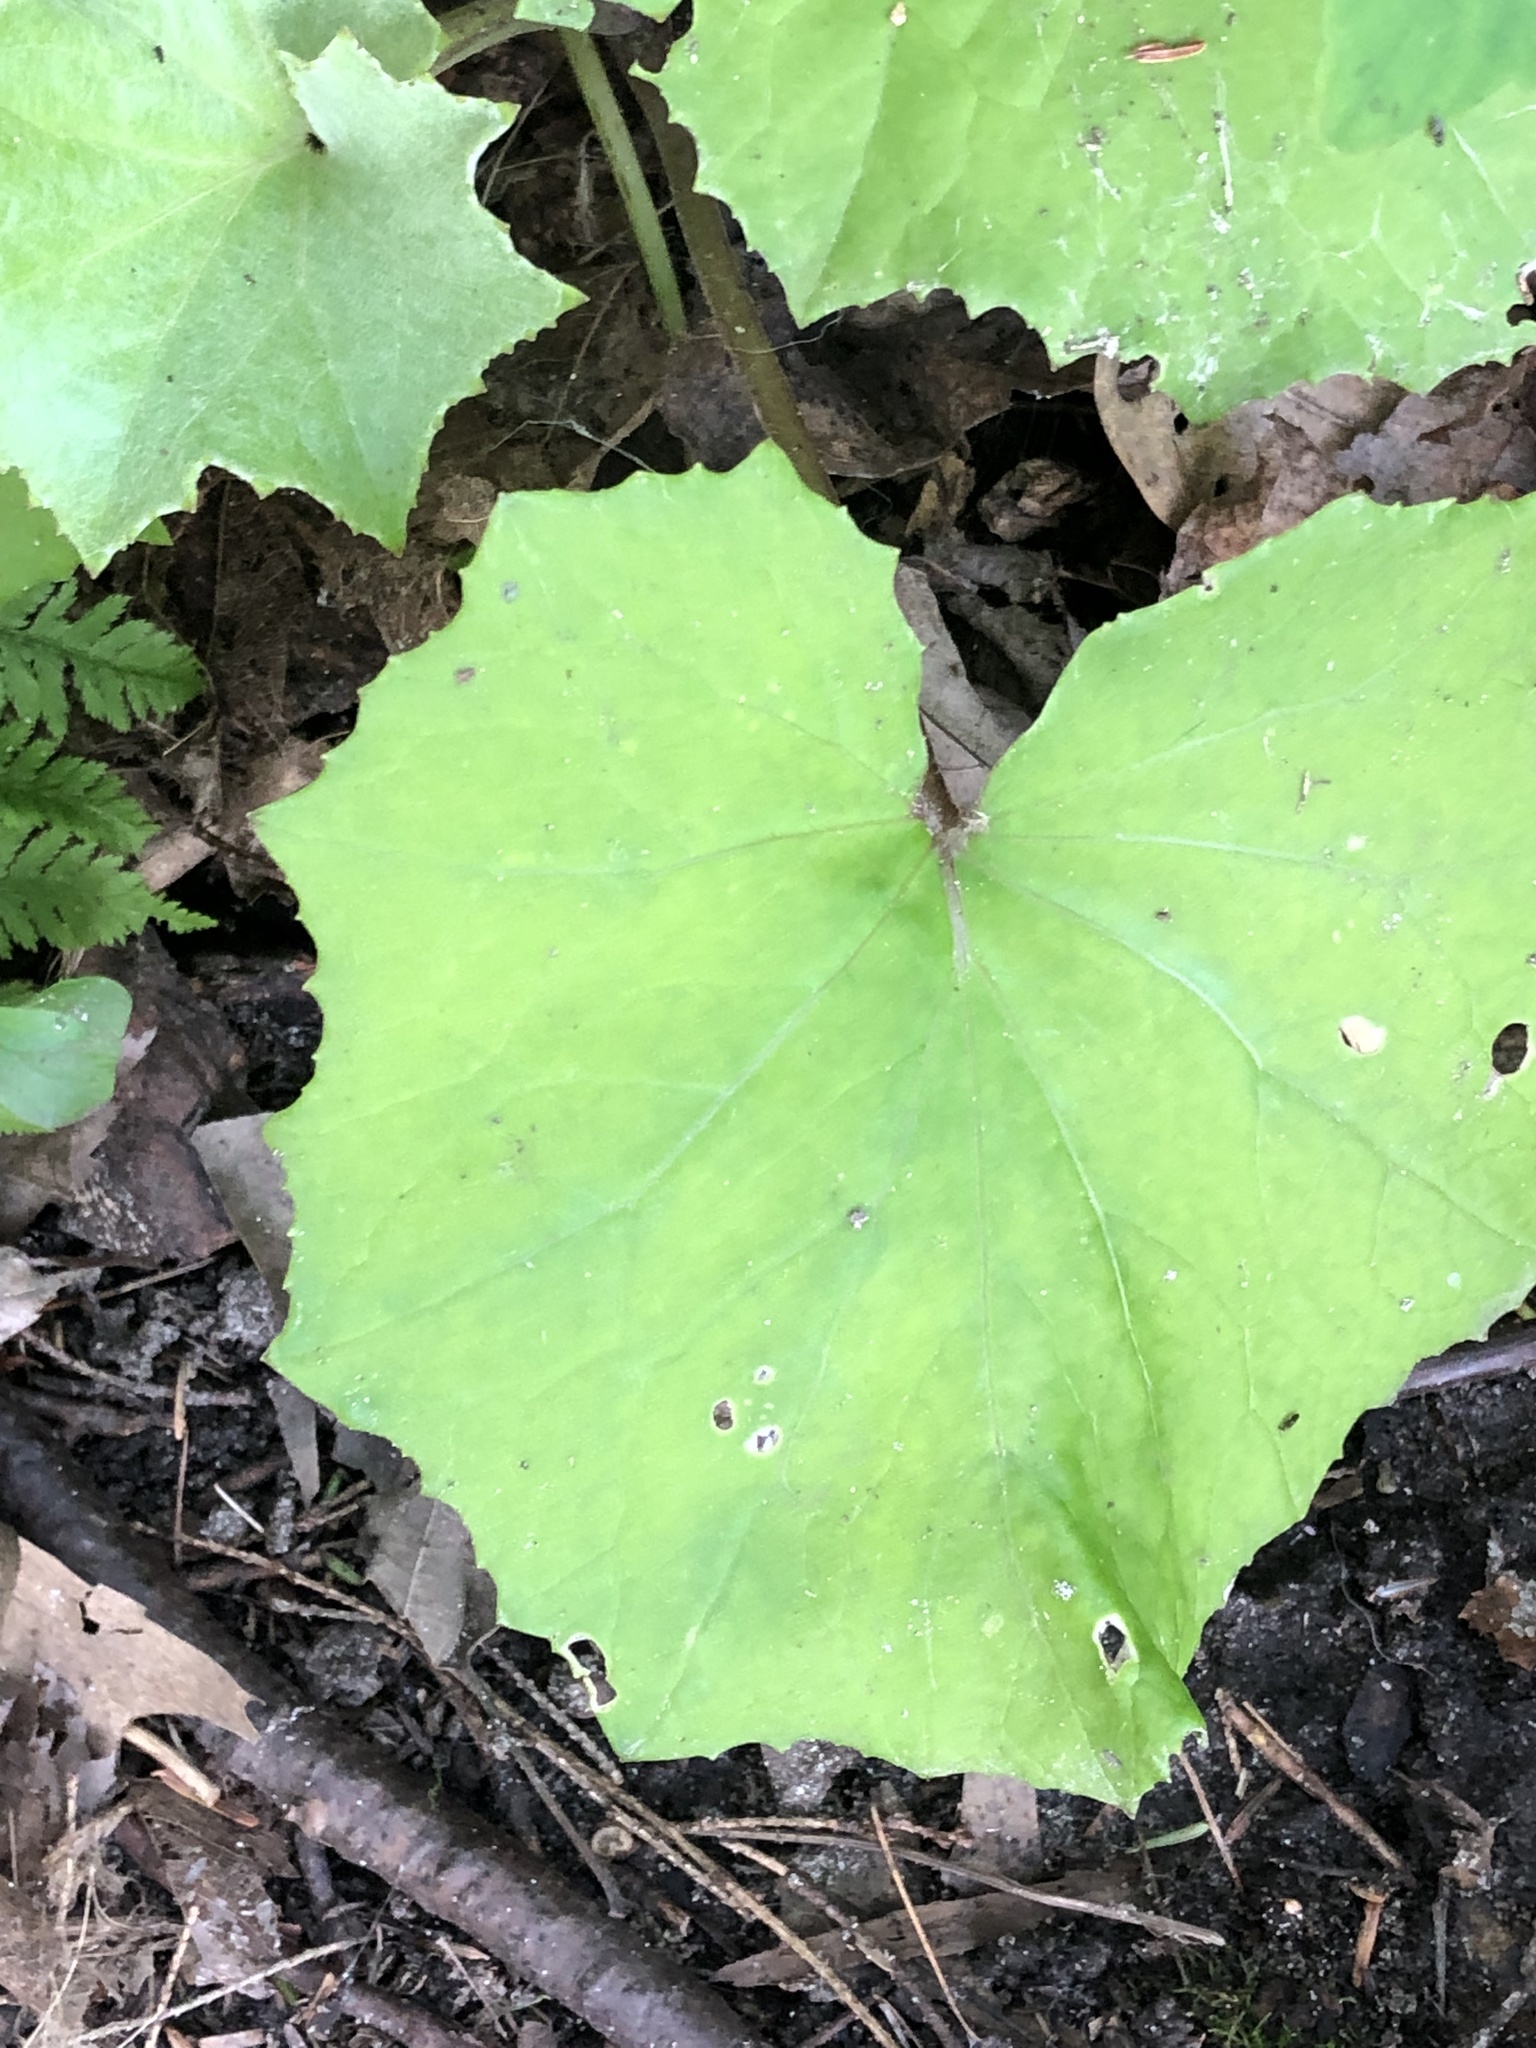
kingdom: Plantae
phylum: Tracheophyta
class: Magnoliopsida
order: Asterales
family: Asteraceae
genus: Tussilago
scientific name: Tussilago farfara
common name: Coltsfoot
